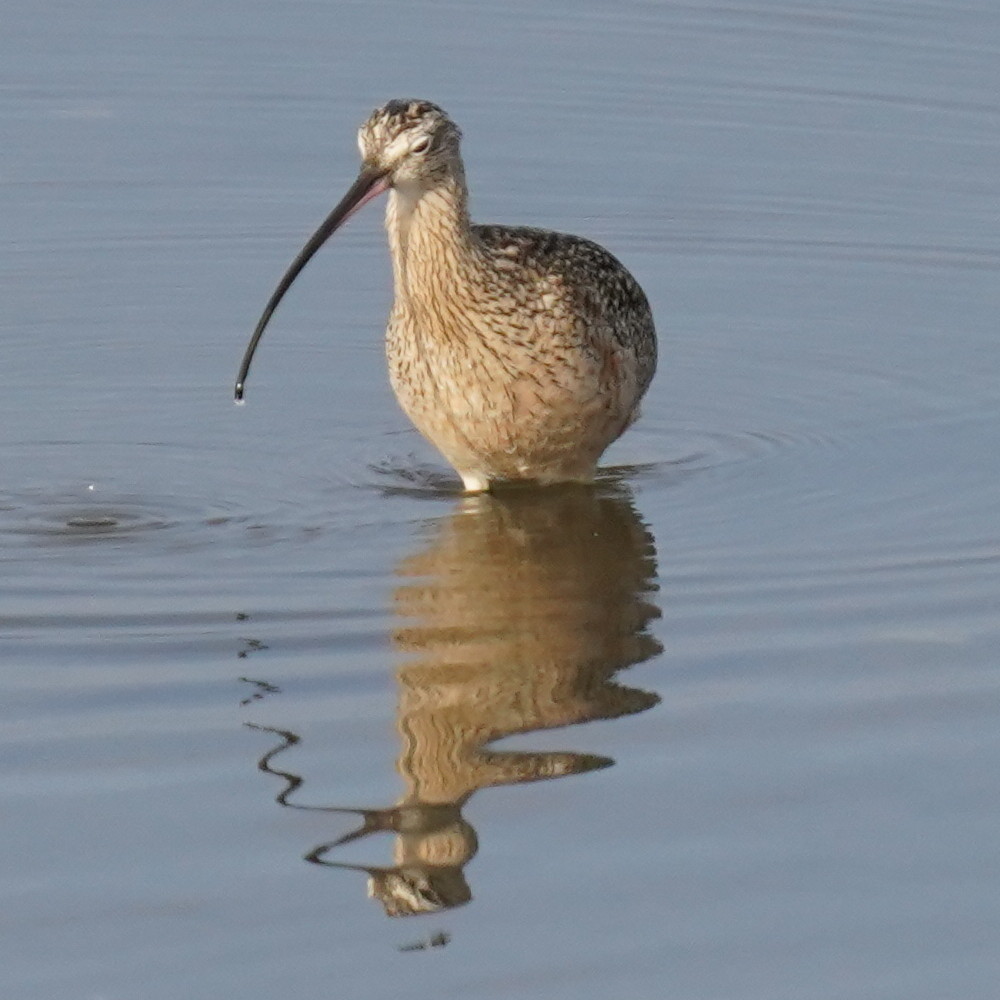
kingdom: Animalia
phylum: Chordata
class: Aves
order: Charadriiformes
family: Scolopacidae
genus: Numenius
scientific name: Numenius americanus
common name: Long-billed curlew
